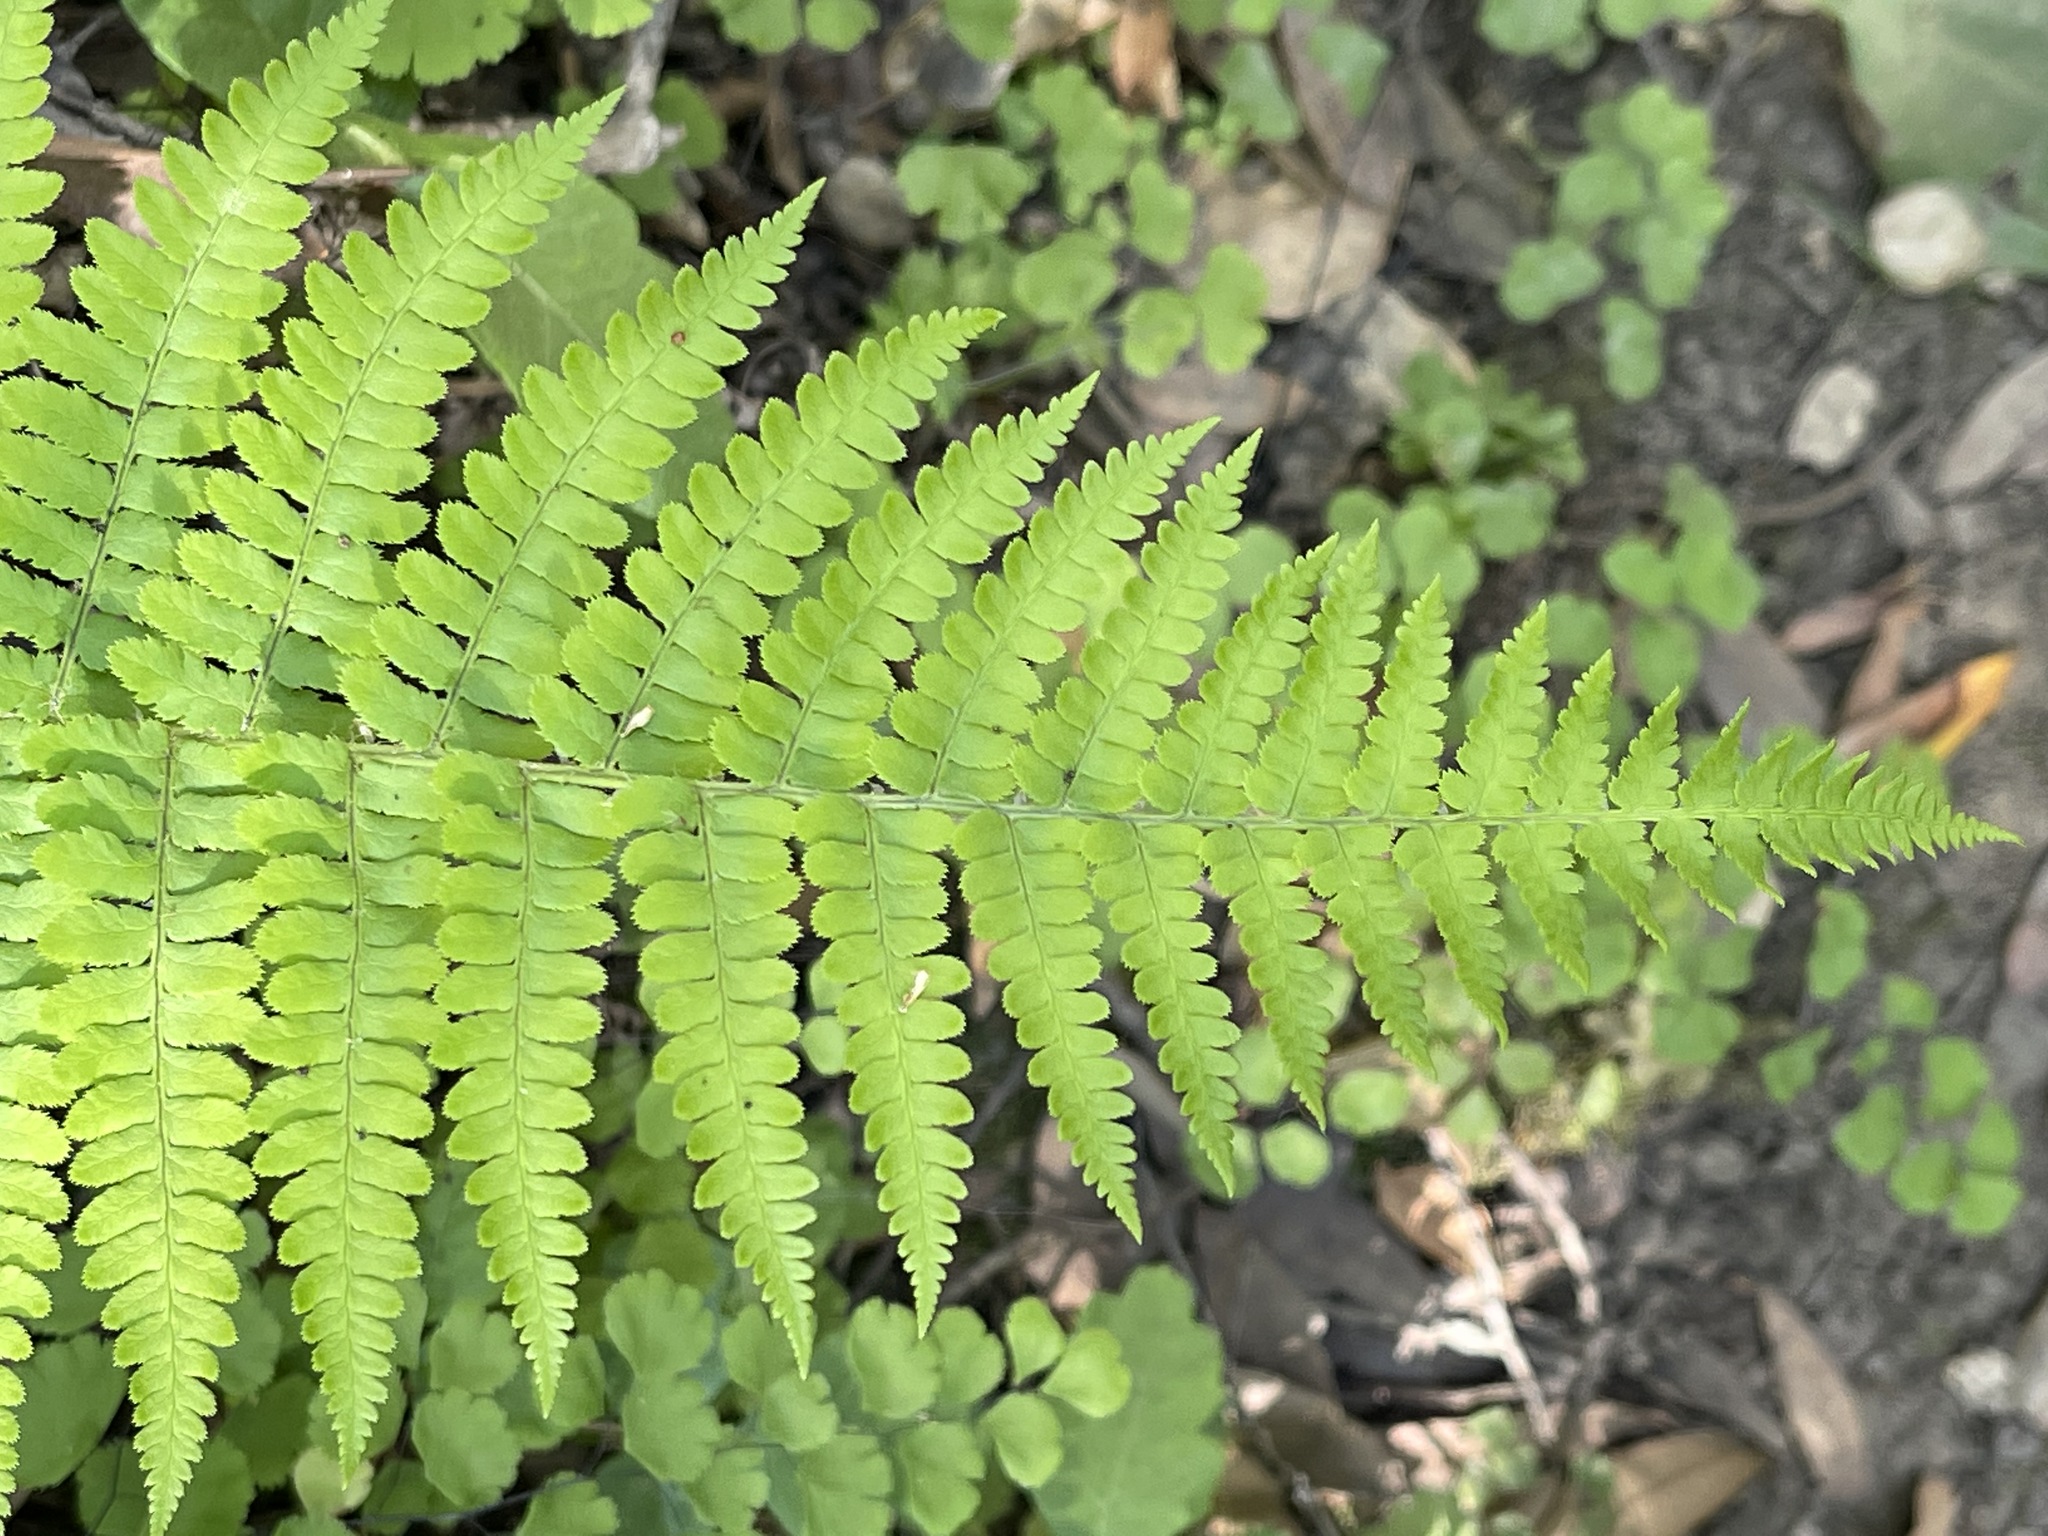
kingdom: Plantae
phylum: Tracheophyta
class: Polypodiopsida
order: Polypodiales
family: Dryopteridaceae
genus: Dryopteris
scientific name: Dryopteris arguta
